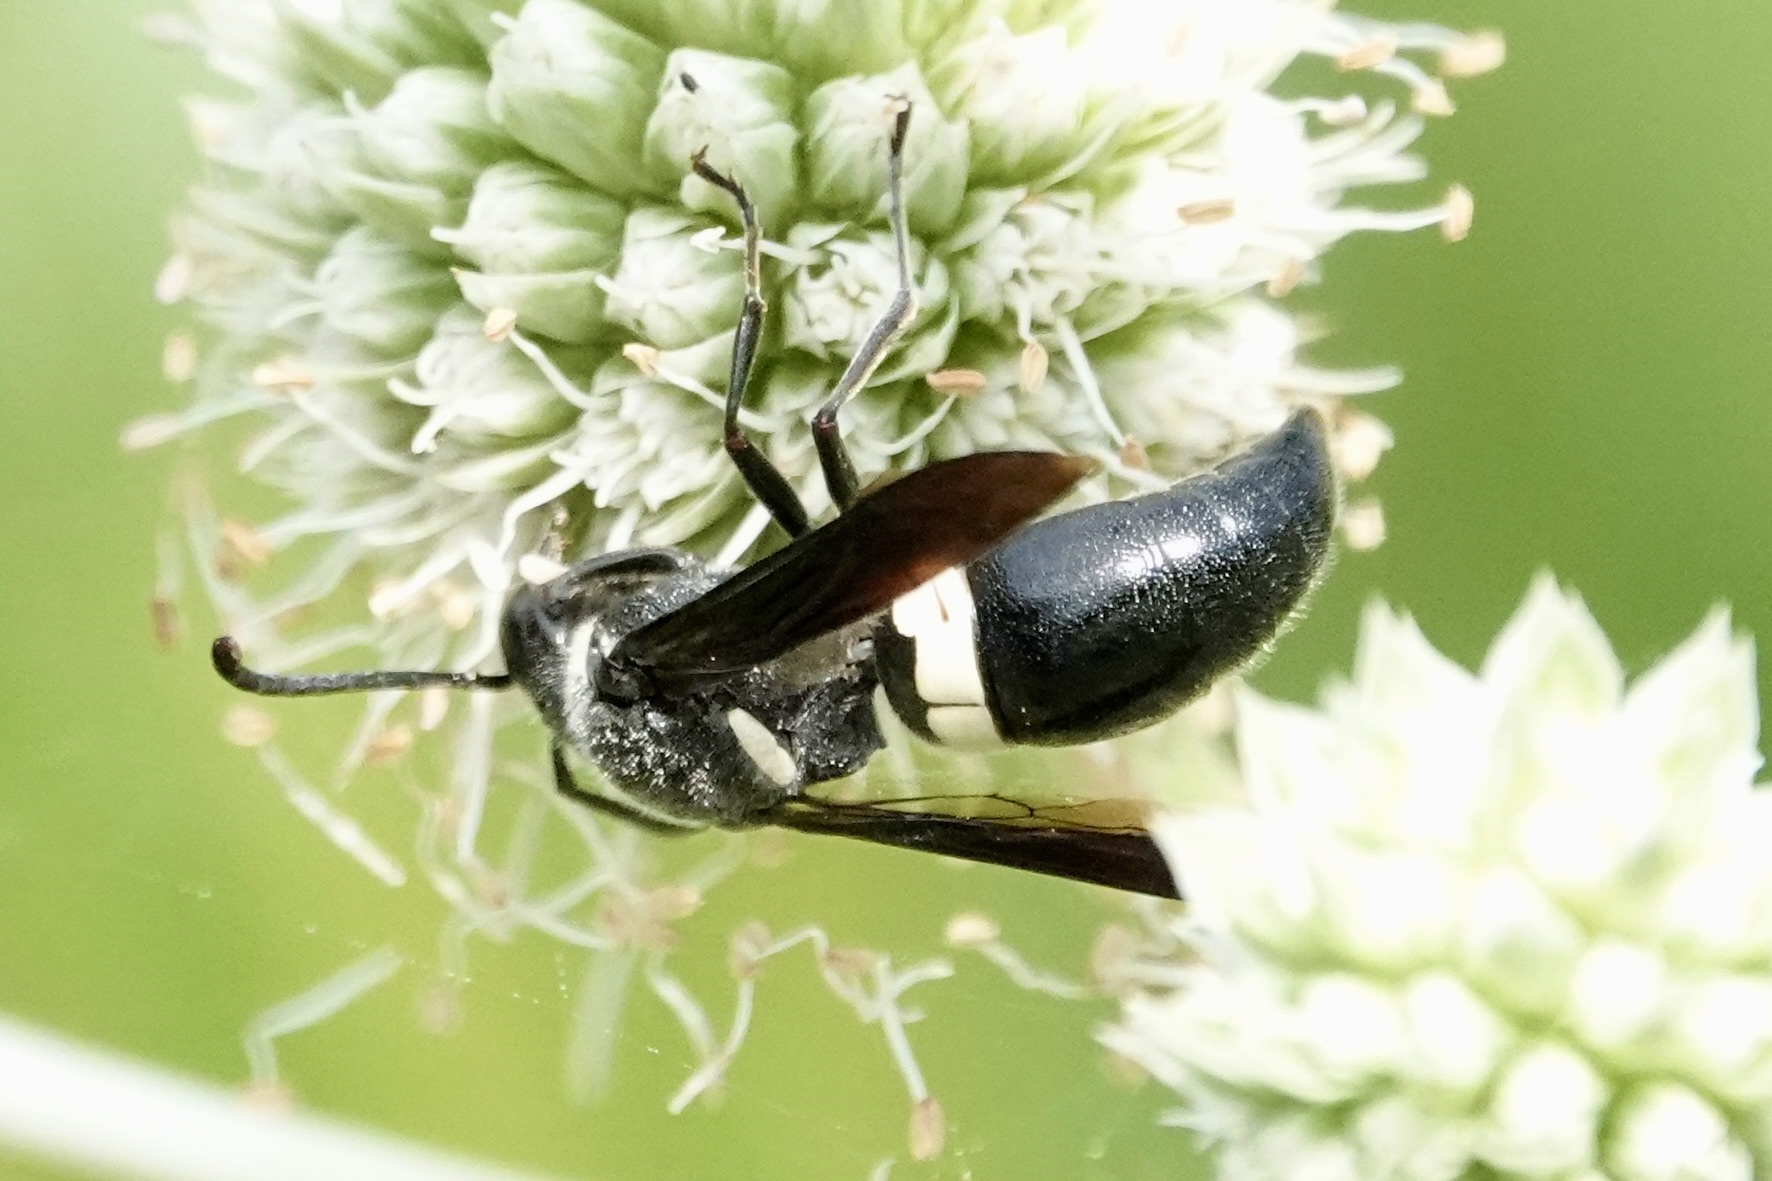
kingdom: Animalia
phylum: Arthropoda
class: Insecta
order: Hymenoptera
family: Eumenidae
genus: Monobia
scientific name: Monobia quadridens
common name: Four-toothed mason wasp
